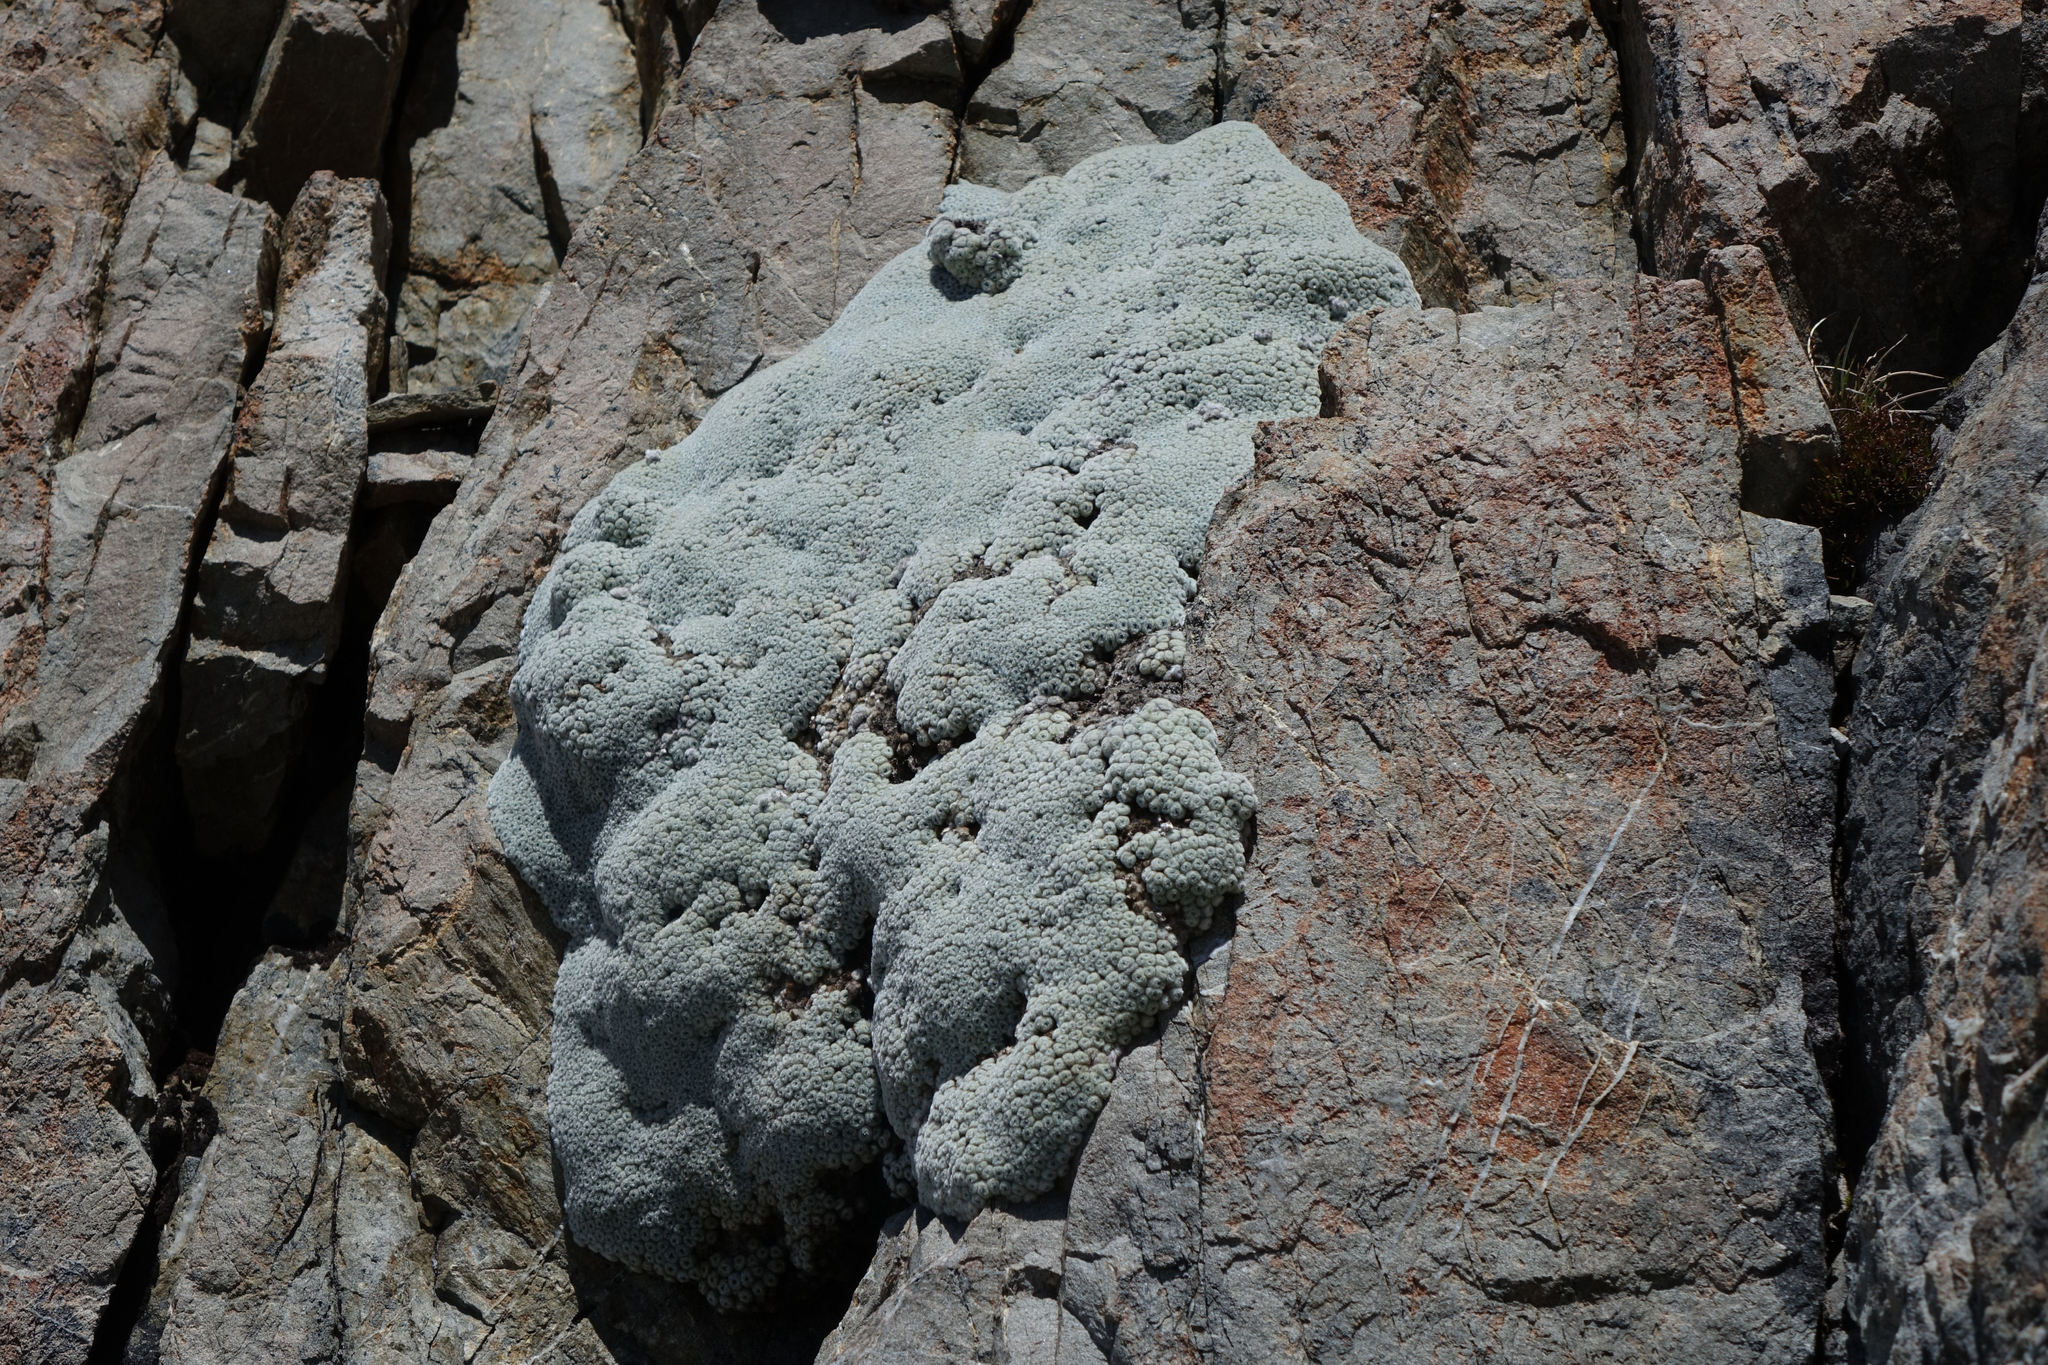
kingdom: Plantae
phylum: Tracheophyta
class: Magnoliopsida
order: Asterales
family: Asteraceae
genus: Raoulia
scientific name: Raoulia eximia
